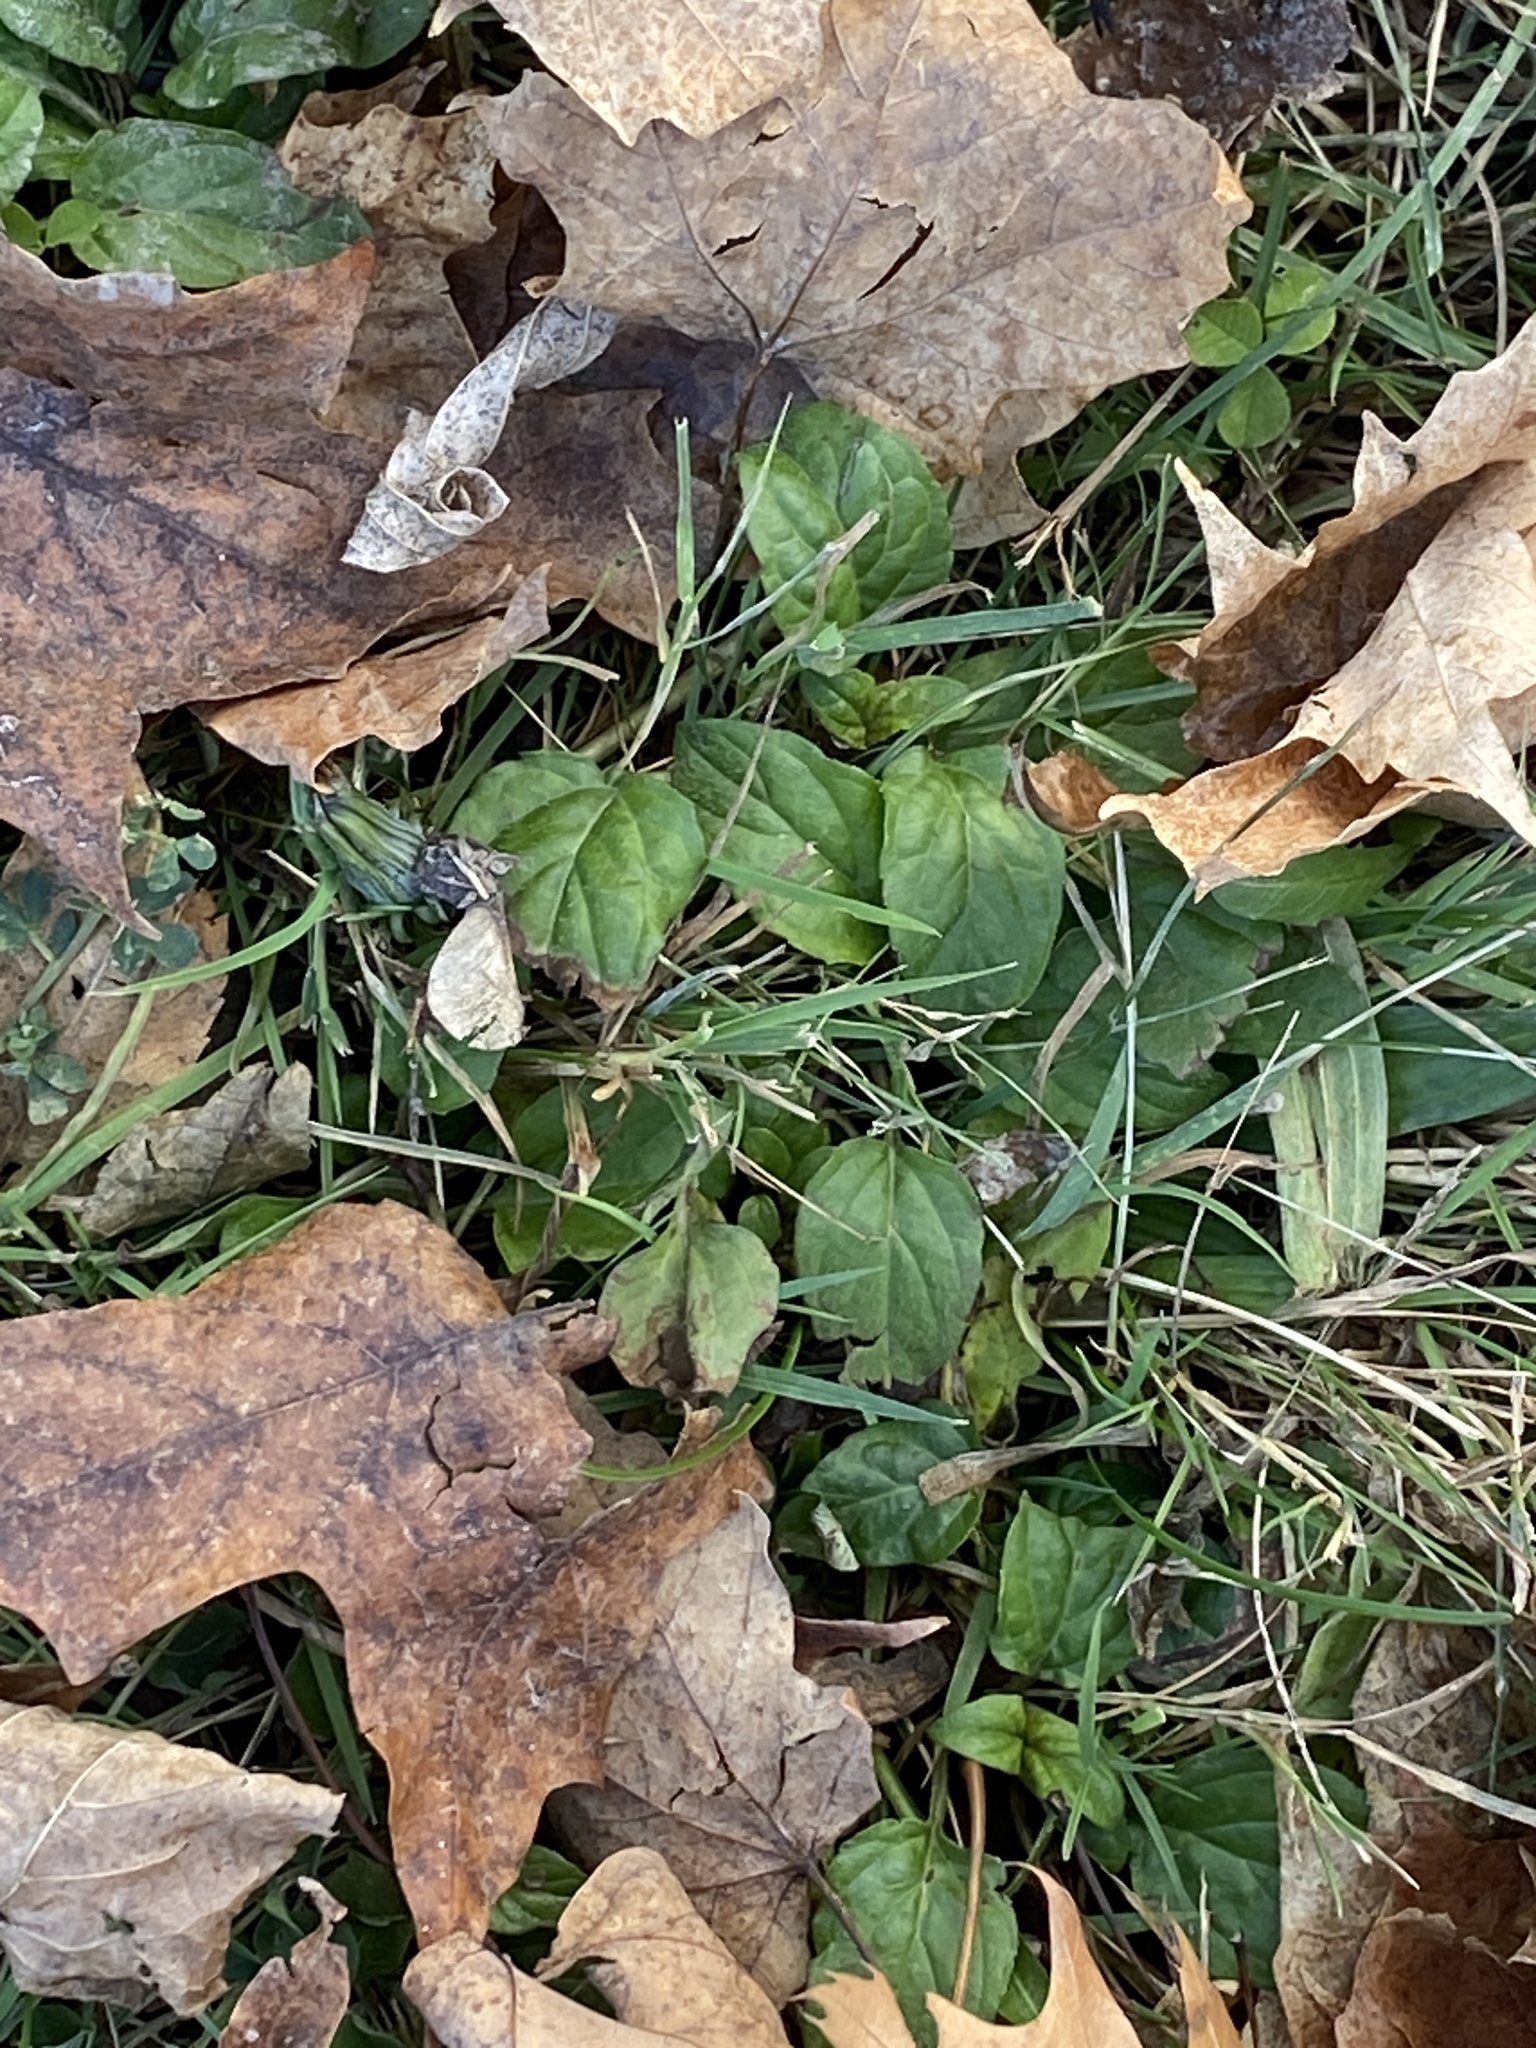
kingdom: Plantae
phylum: Tracheophyta
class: Magnoliopsida
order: Lamiales
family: Lamiaceae
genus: Prunella
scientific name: Prunella vulgaris
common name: Heal-all
